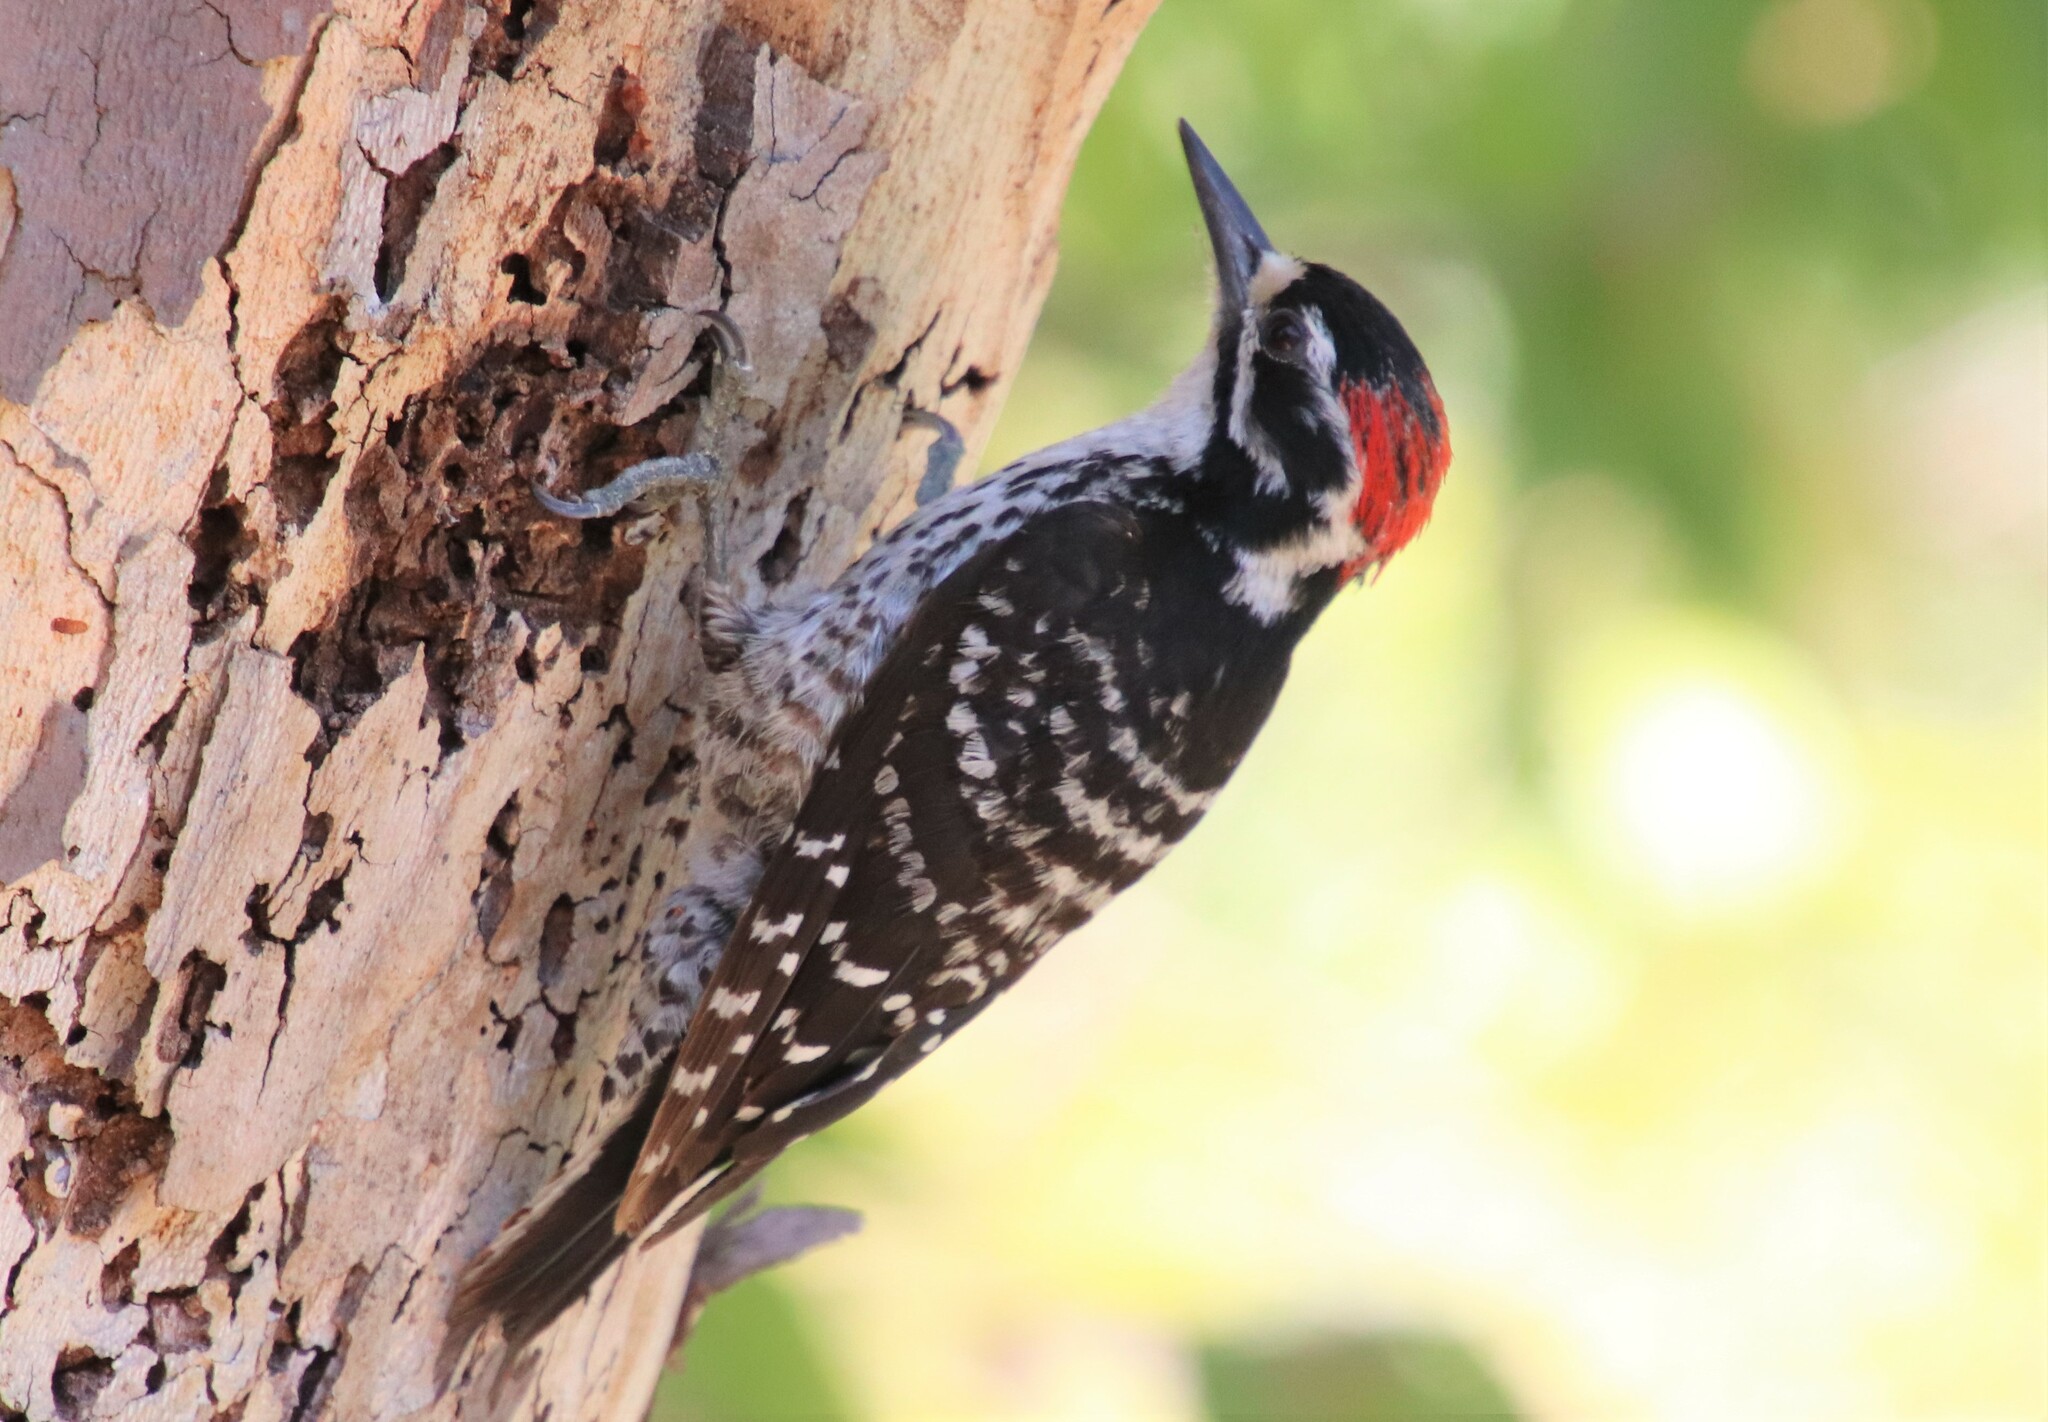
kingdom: Animalia
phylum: Chordata
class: Aves
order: Piciformes
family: Picidae
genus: Dryobates
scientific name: Dryobates nuttallii
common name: Nuttall's woodpecker
